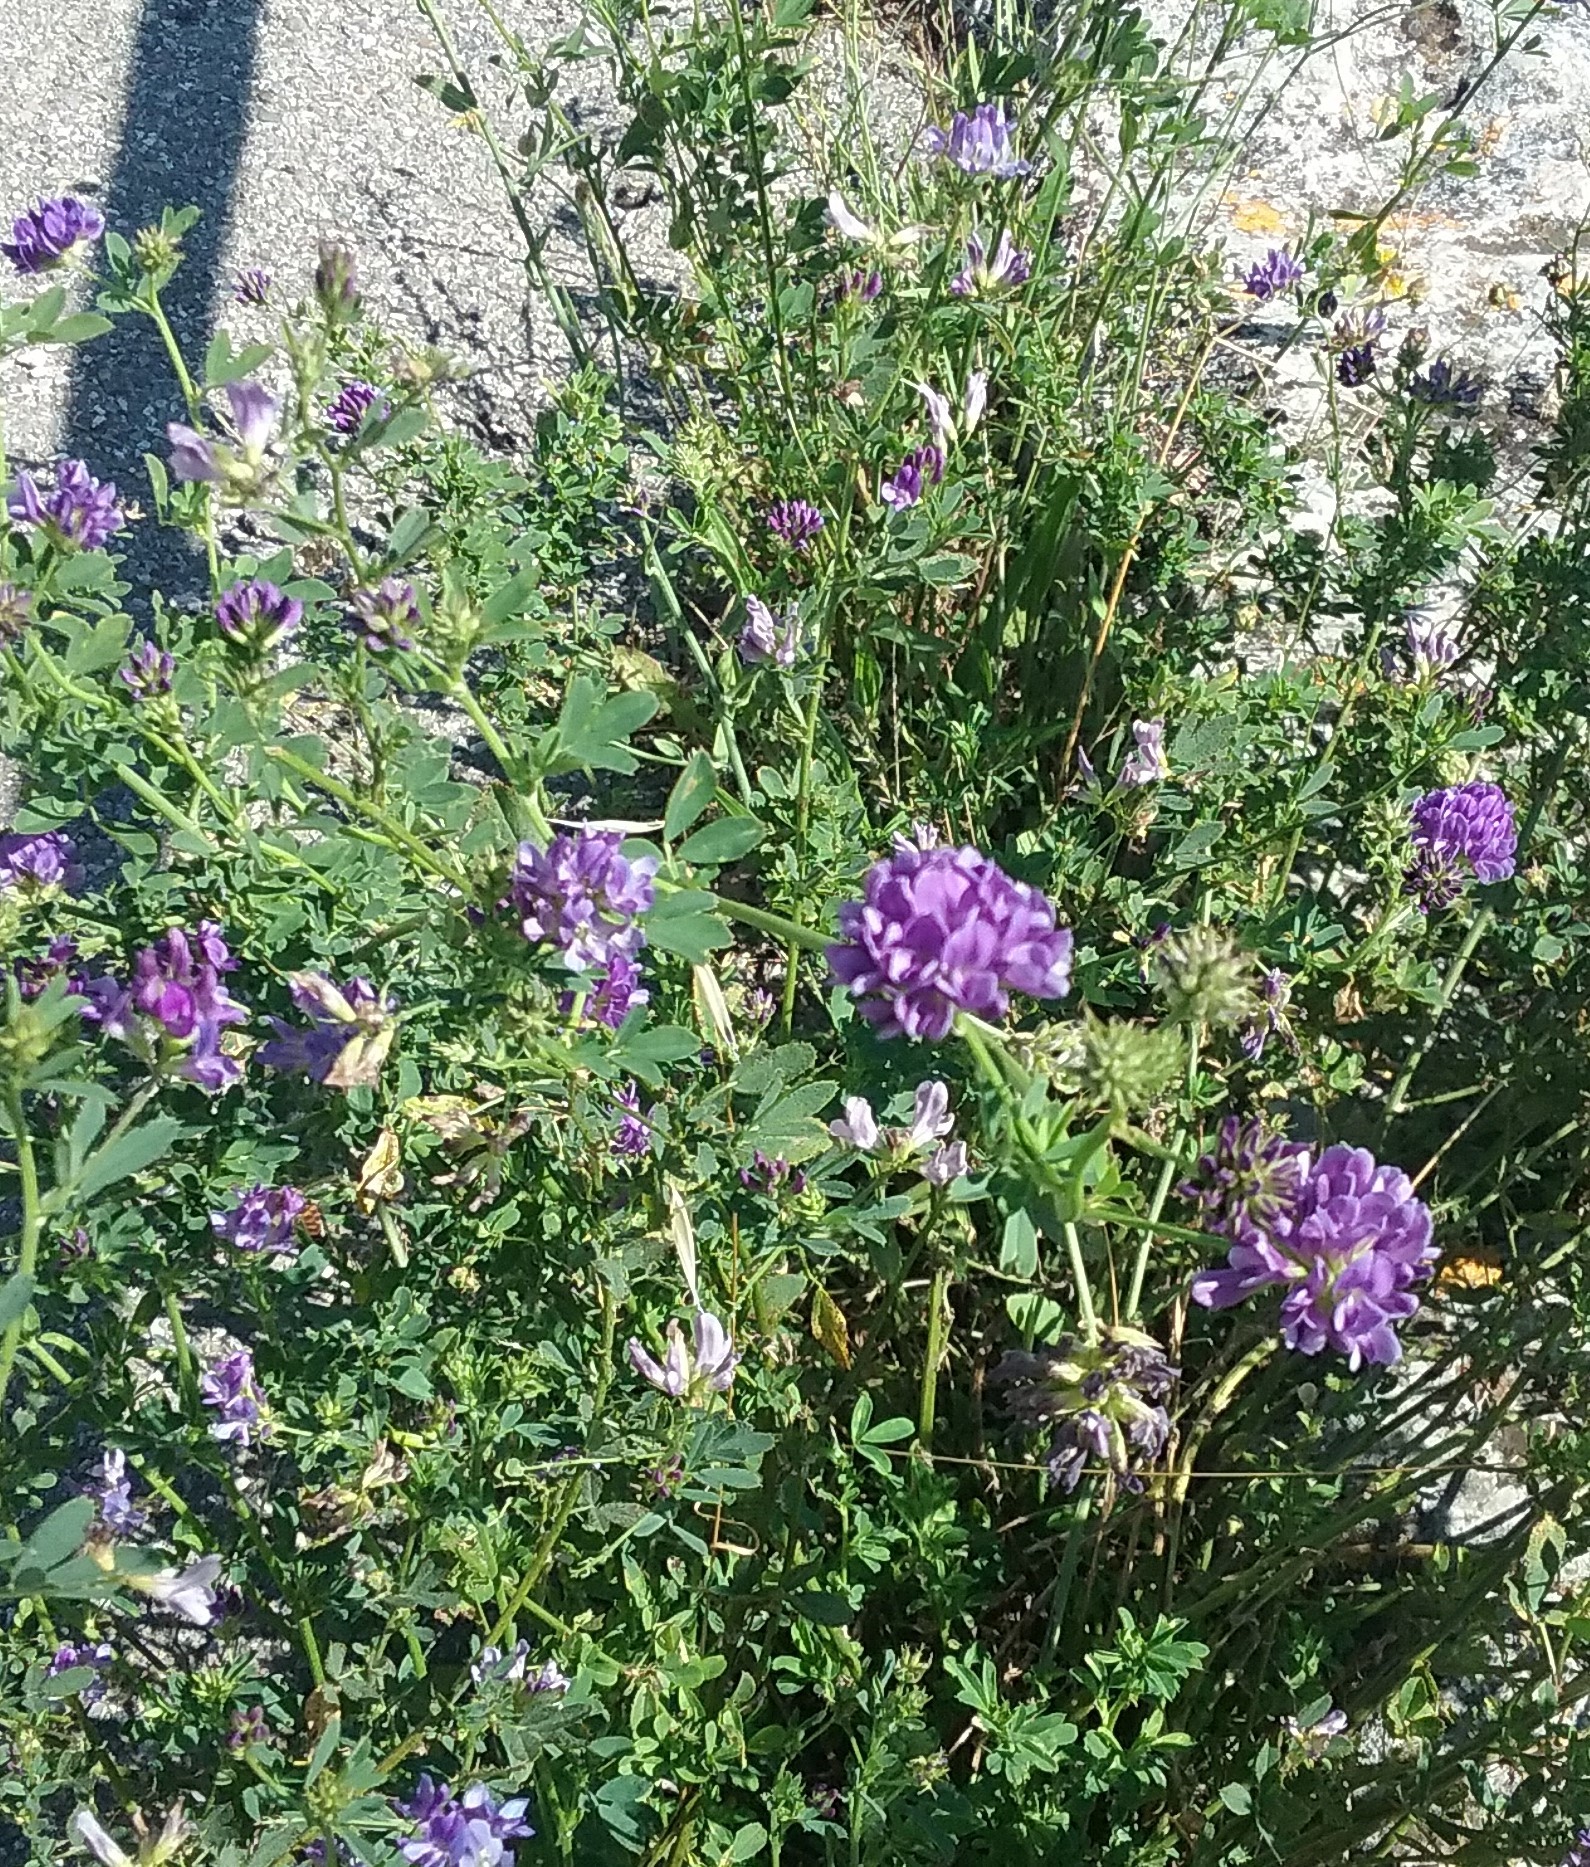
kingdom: Plantae
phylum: Tracheophyta
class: Magnoliopsida
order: Fabales
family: Fabaceae
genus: Medicago
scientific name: Medicago sativa
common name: Alfalfa
